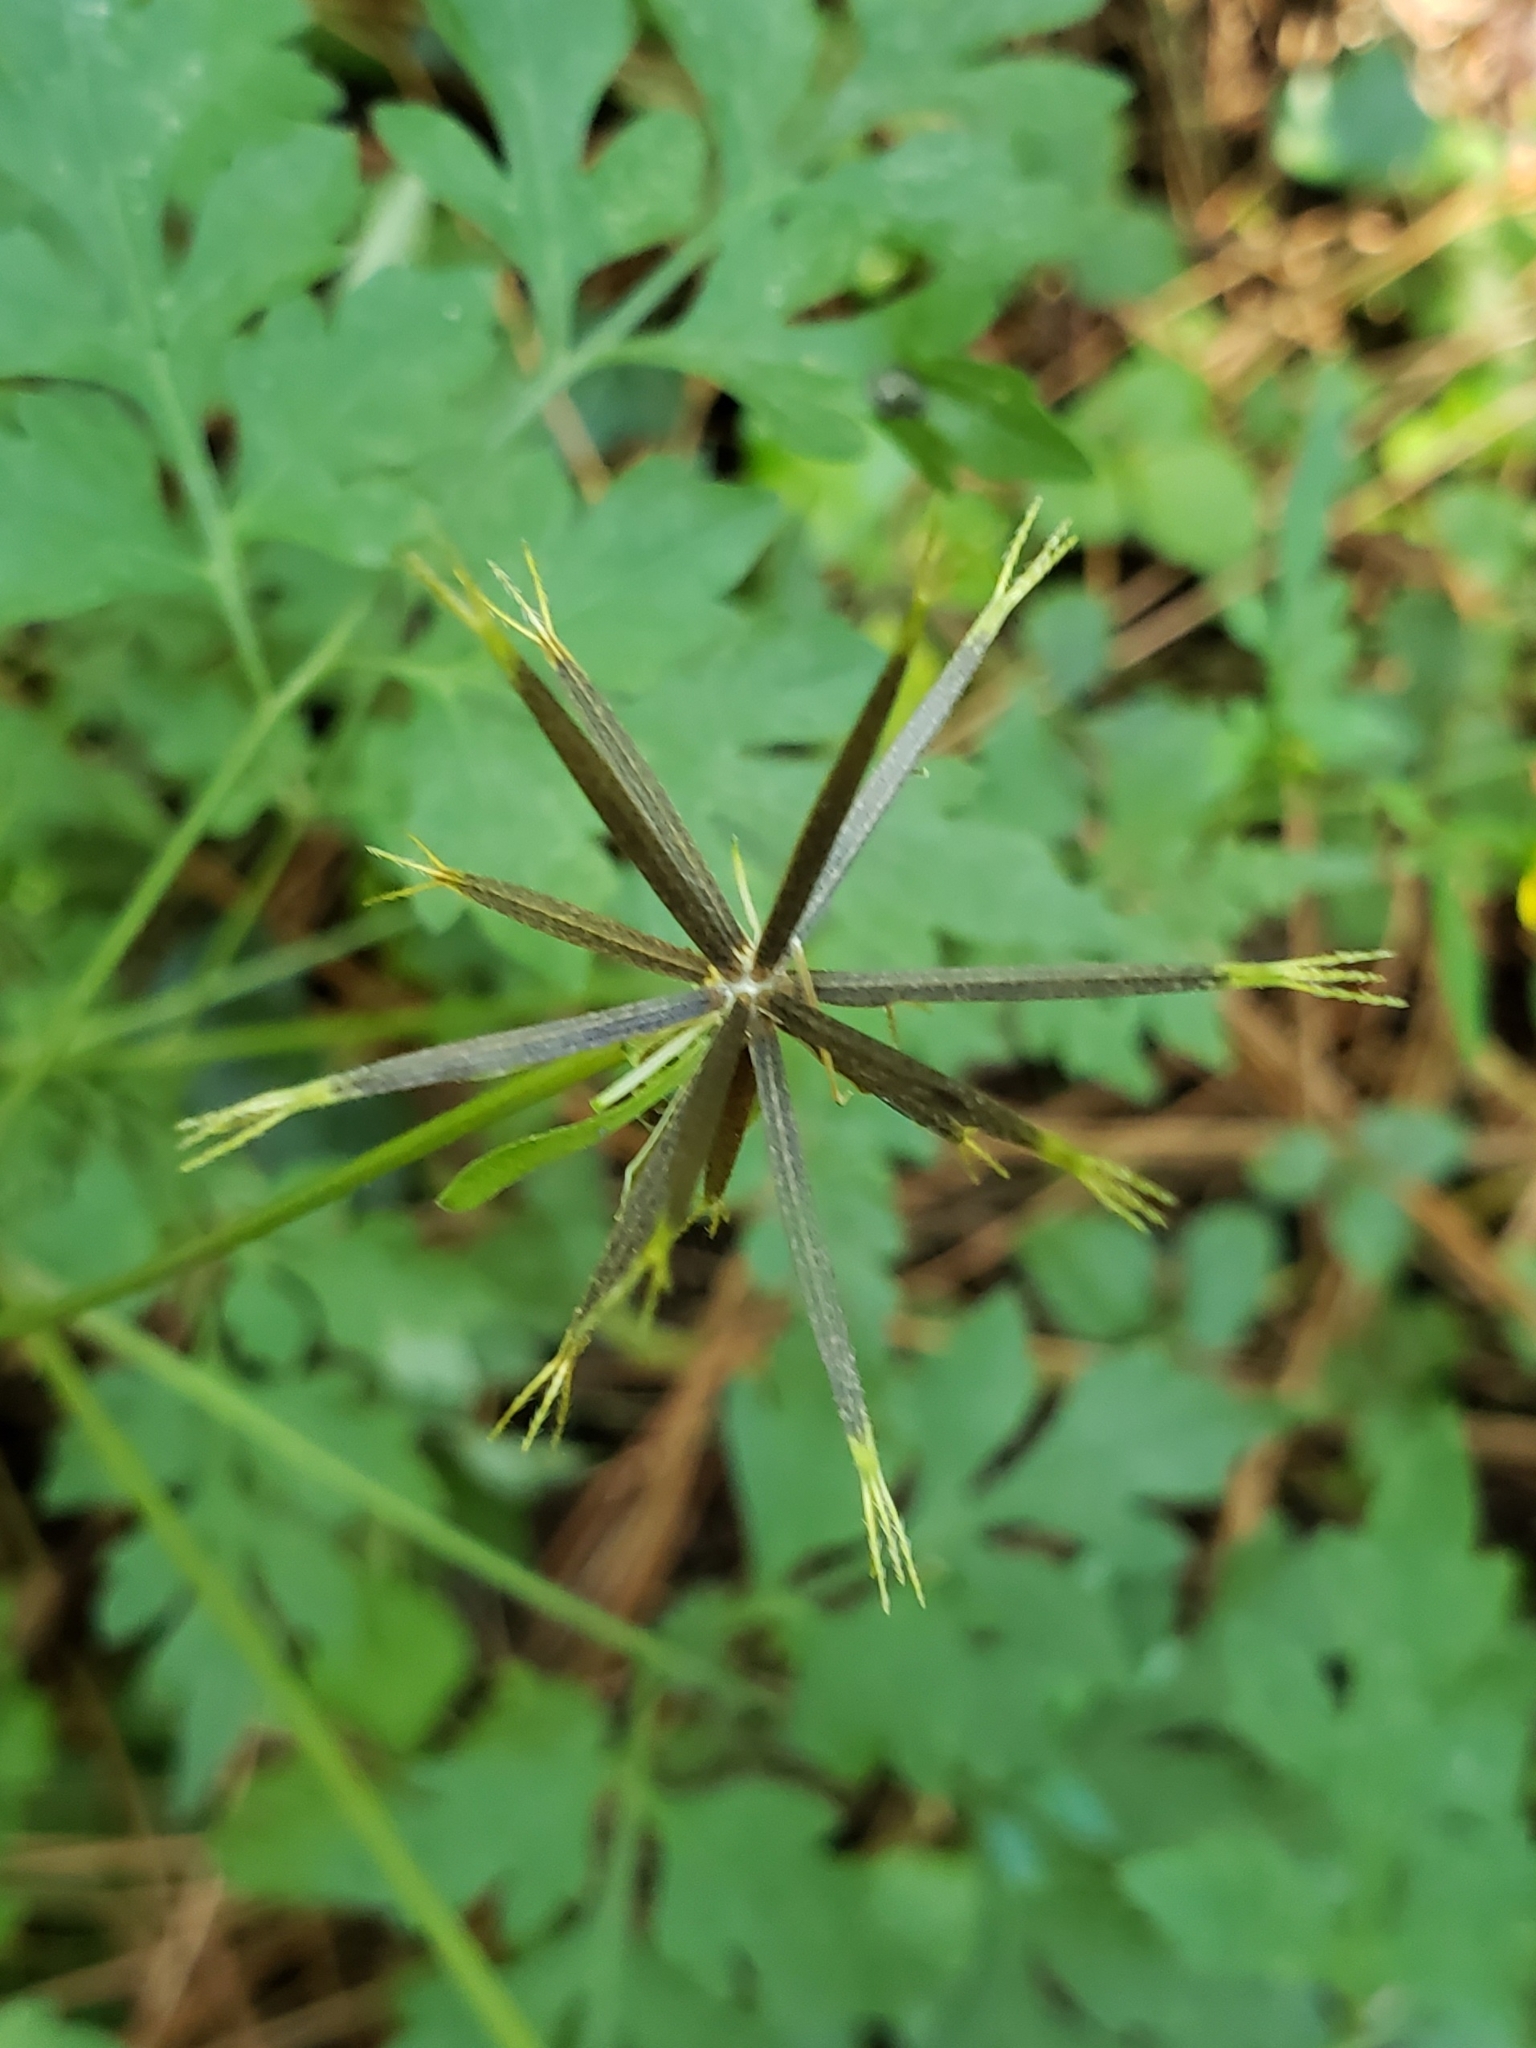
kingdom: Plantae
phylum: Tracheophyta
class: Magnoliopsida
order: Asterales
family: Asteraceae
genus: Bidens
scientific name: Bidens bipinnata
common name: Spanish-needles
